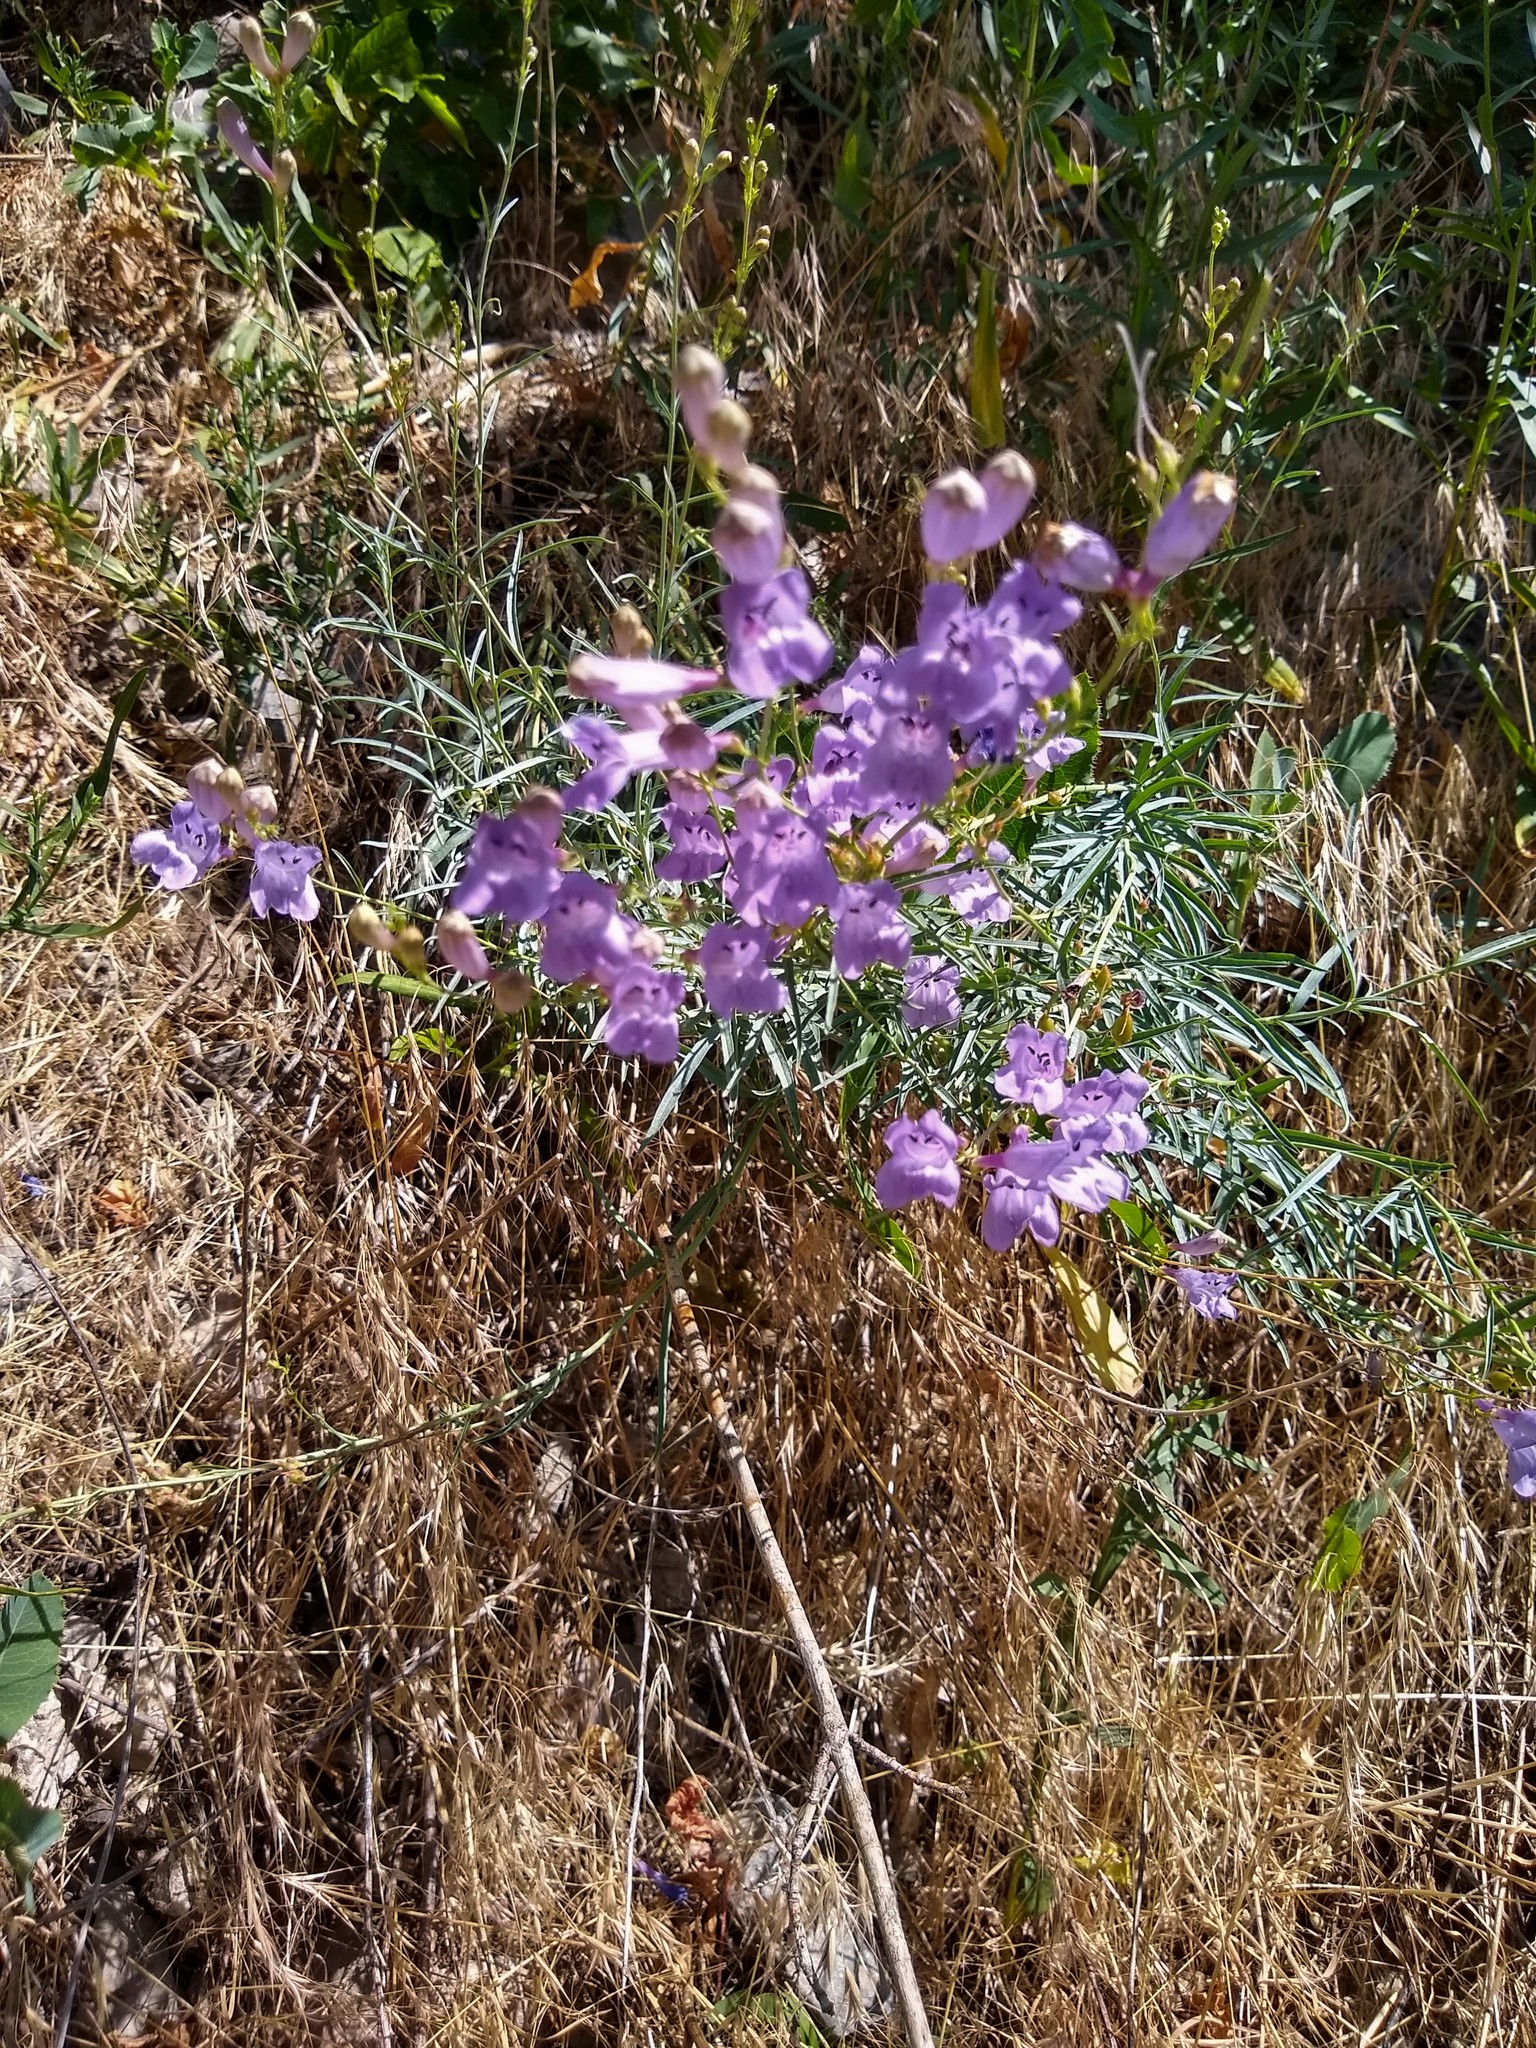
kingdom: Plantae
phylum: Tracheophyta
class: Magnoliopsida
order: Lamiales
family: Plantaginaceae
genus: Penstemon
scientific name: Penstemon sepalulus
